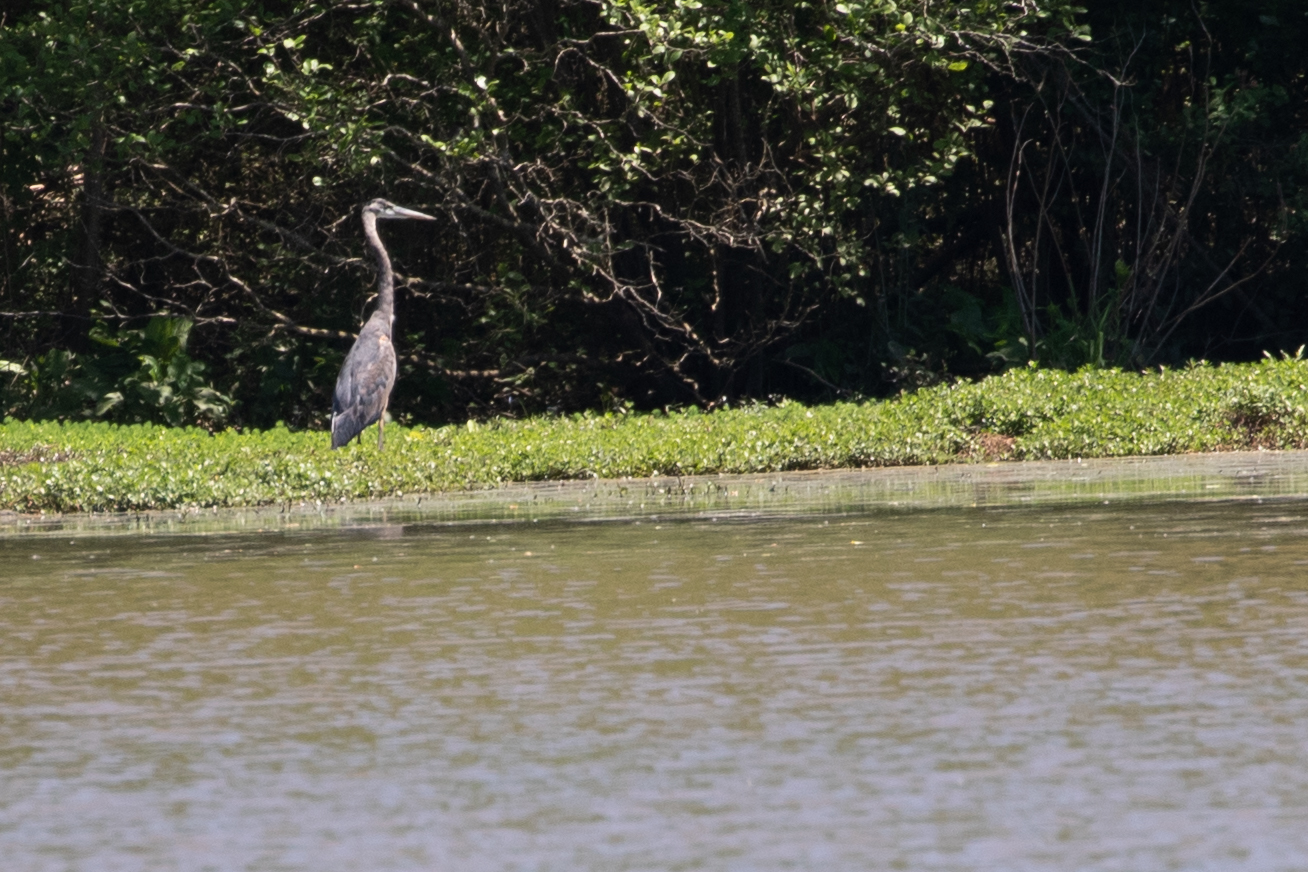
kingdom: Animalia
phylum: Chordata
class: Aves
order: Pelecaniformes
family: Ardeidae
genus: Ardea
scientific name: Ardea herodias
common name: Great blue heron
